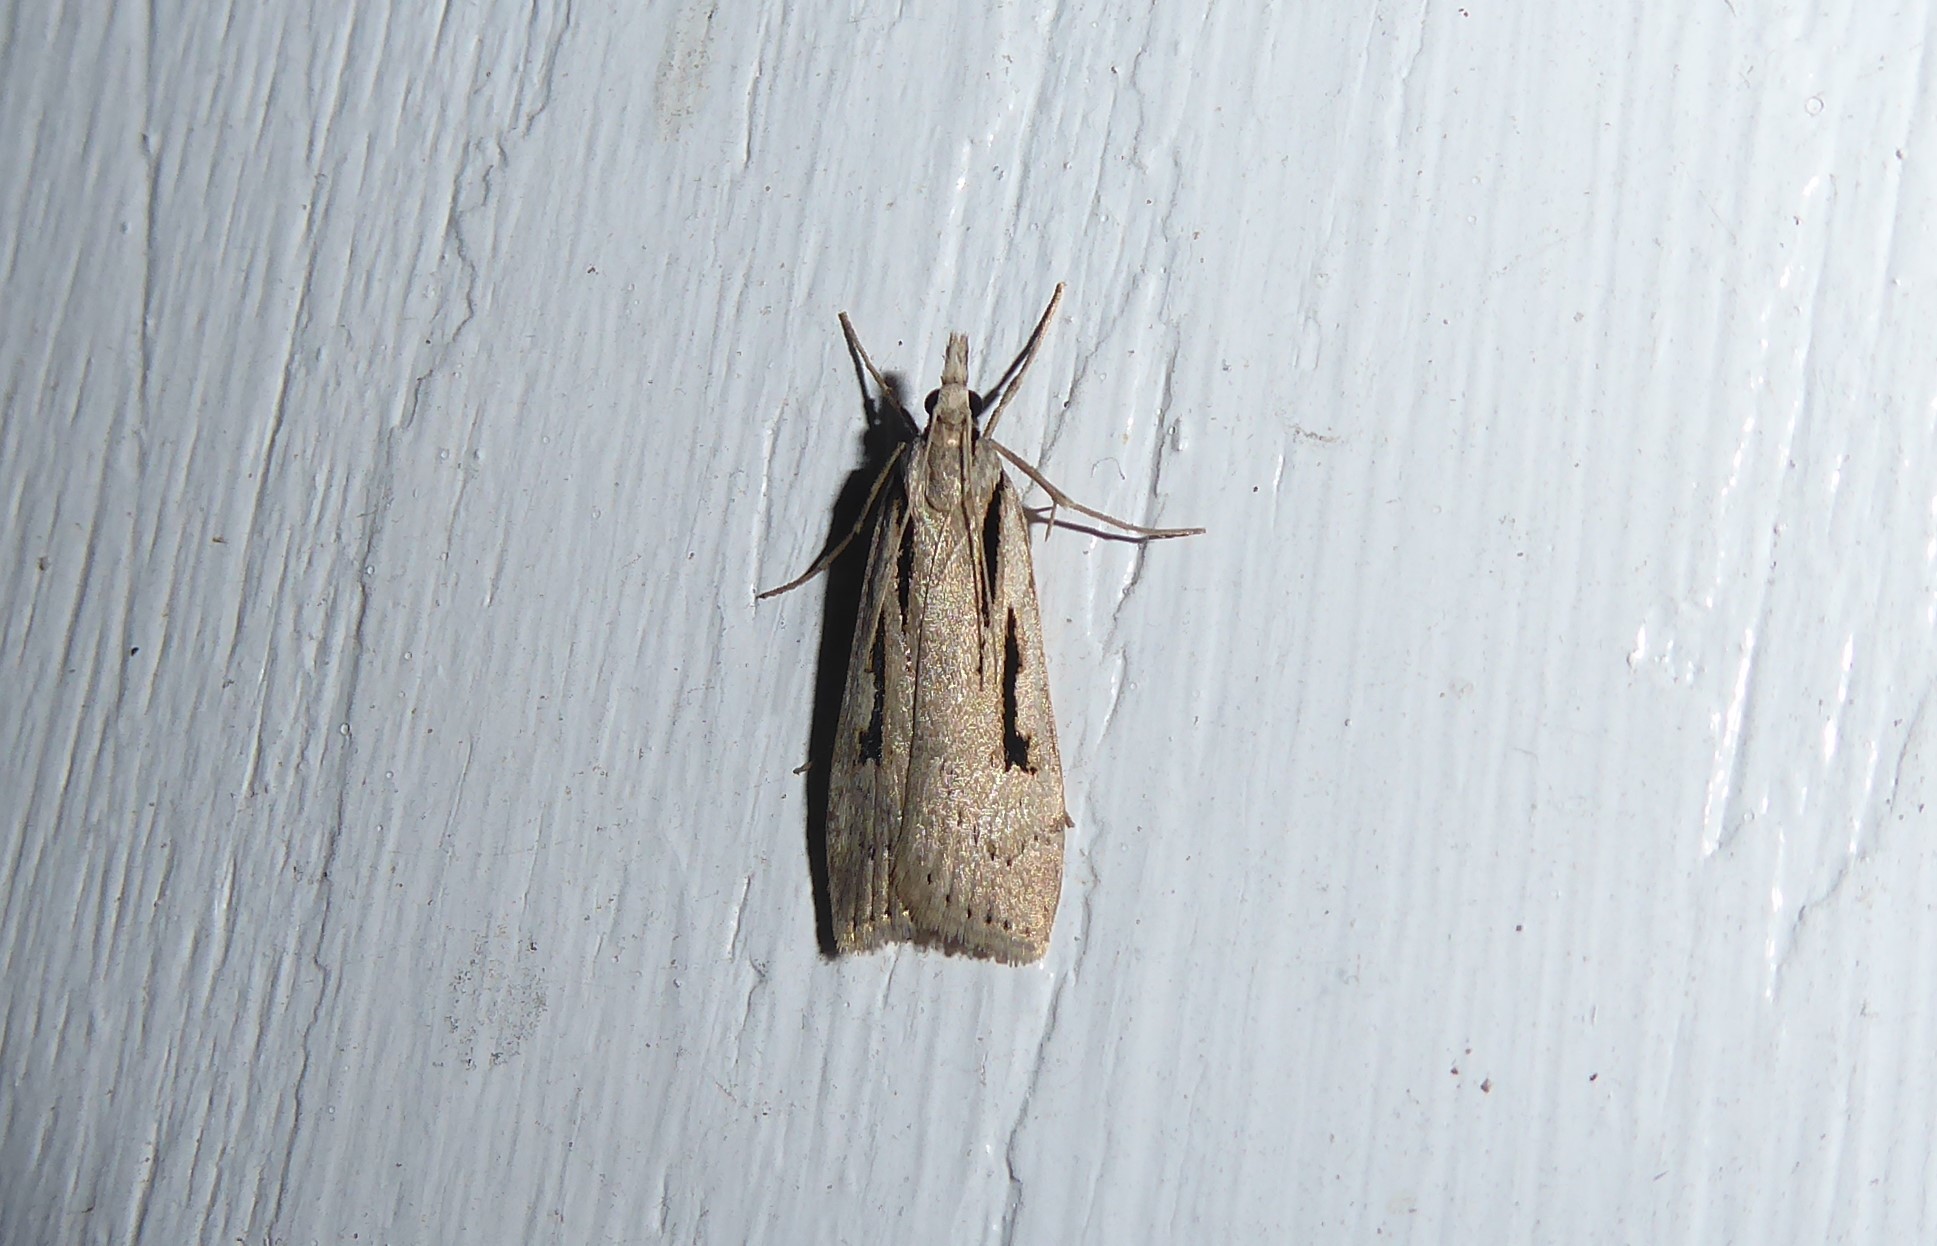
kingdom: Animalia
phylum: Arthropoda
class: Insecta
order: Lepidoptera
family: Crambidae
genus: Scoparia
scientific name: Scoparia rotuellus
